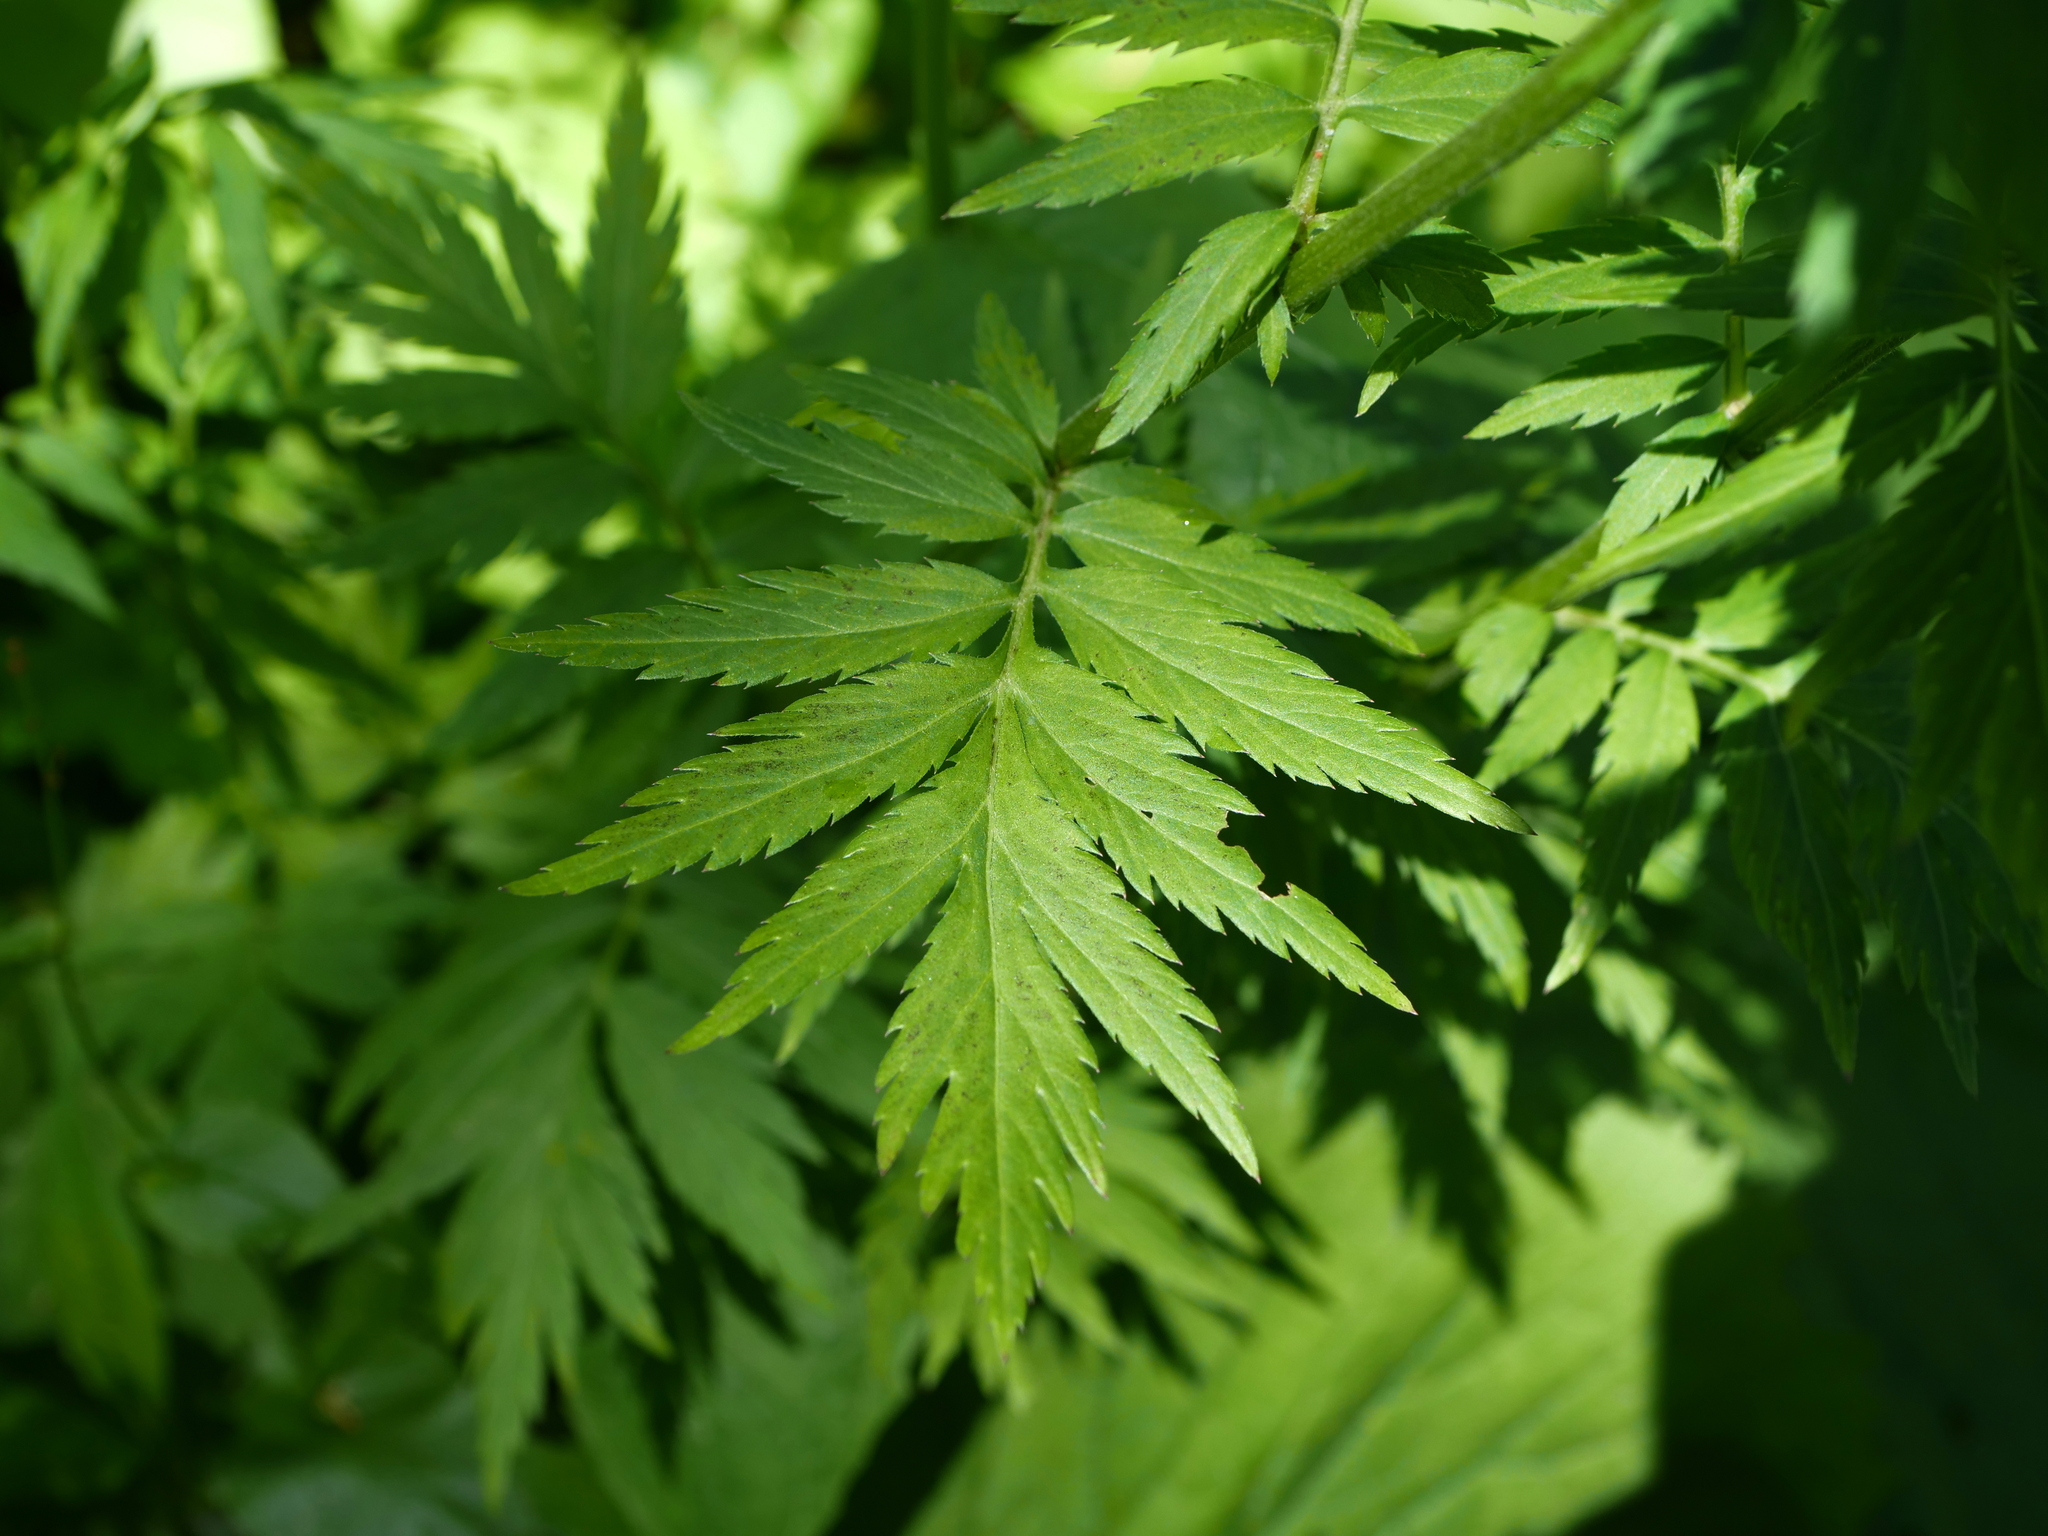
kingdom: Plantae
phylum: Tracheophyta
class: Magnoliopsida
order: Asterales
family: Asteraceae
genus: Achillea
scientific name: Achillea macrophylla
